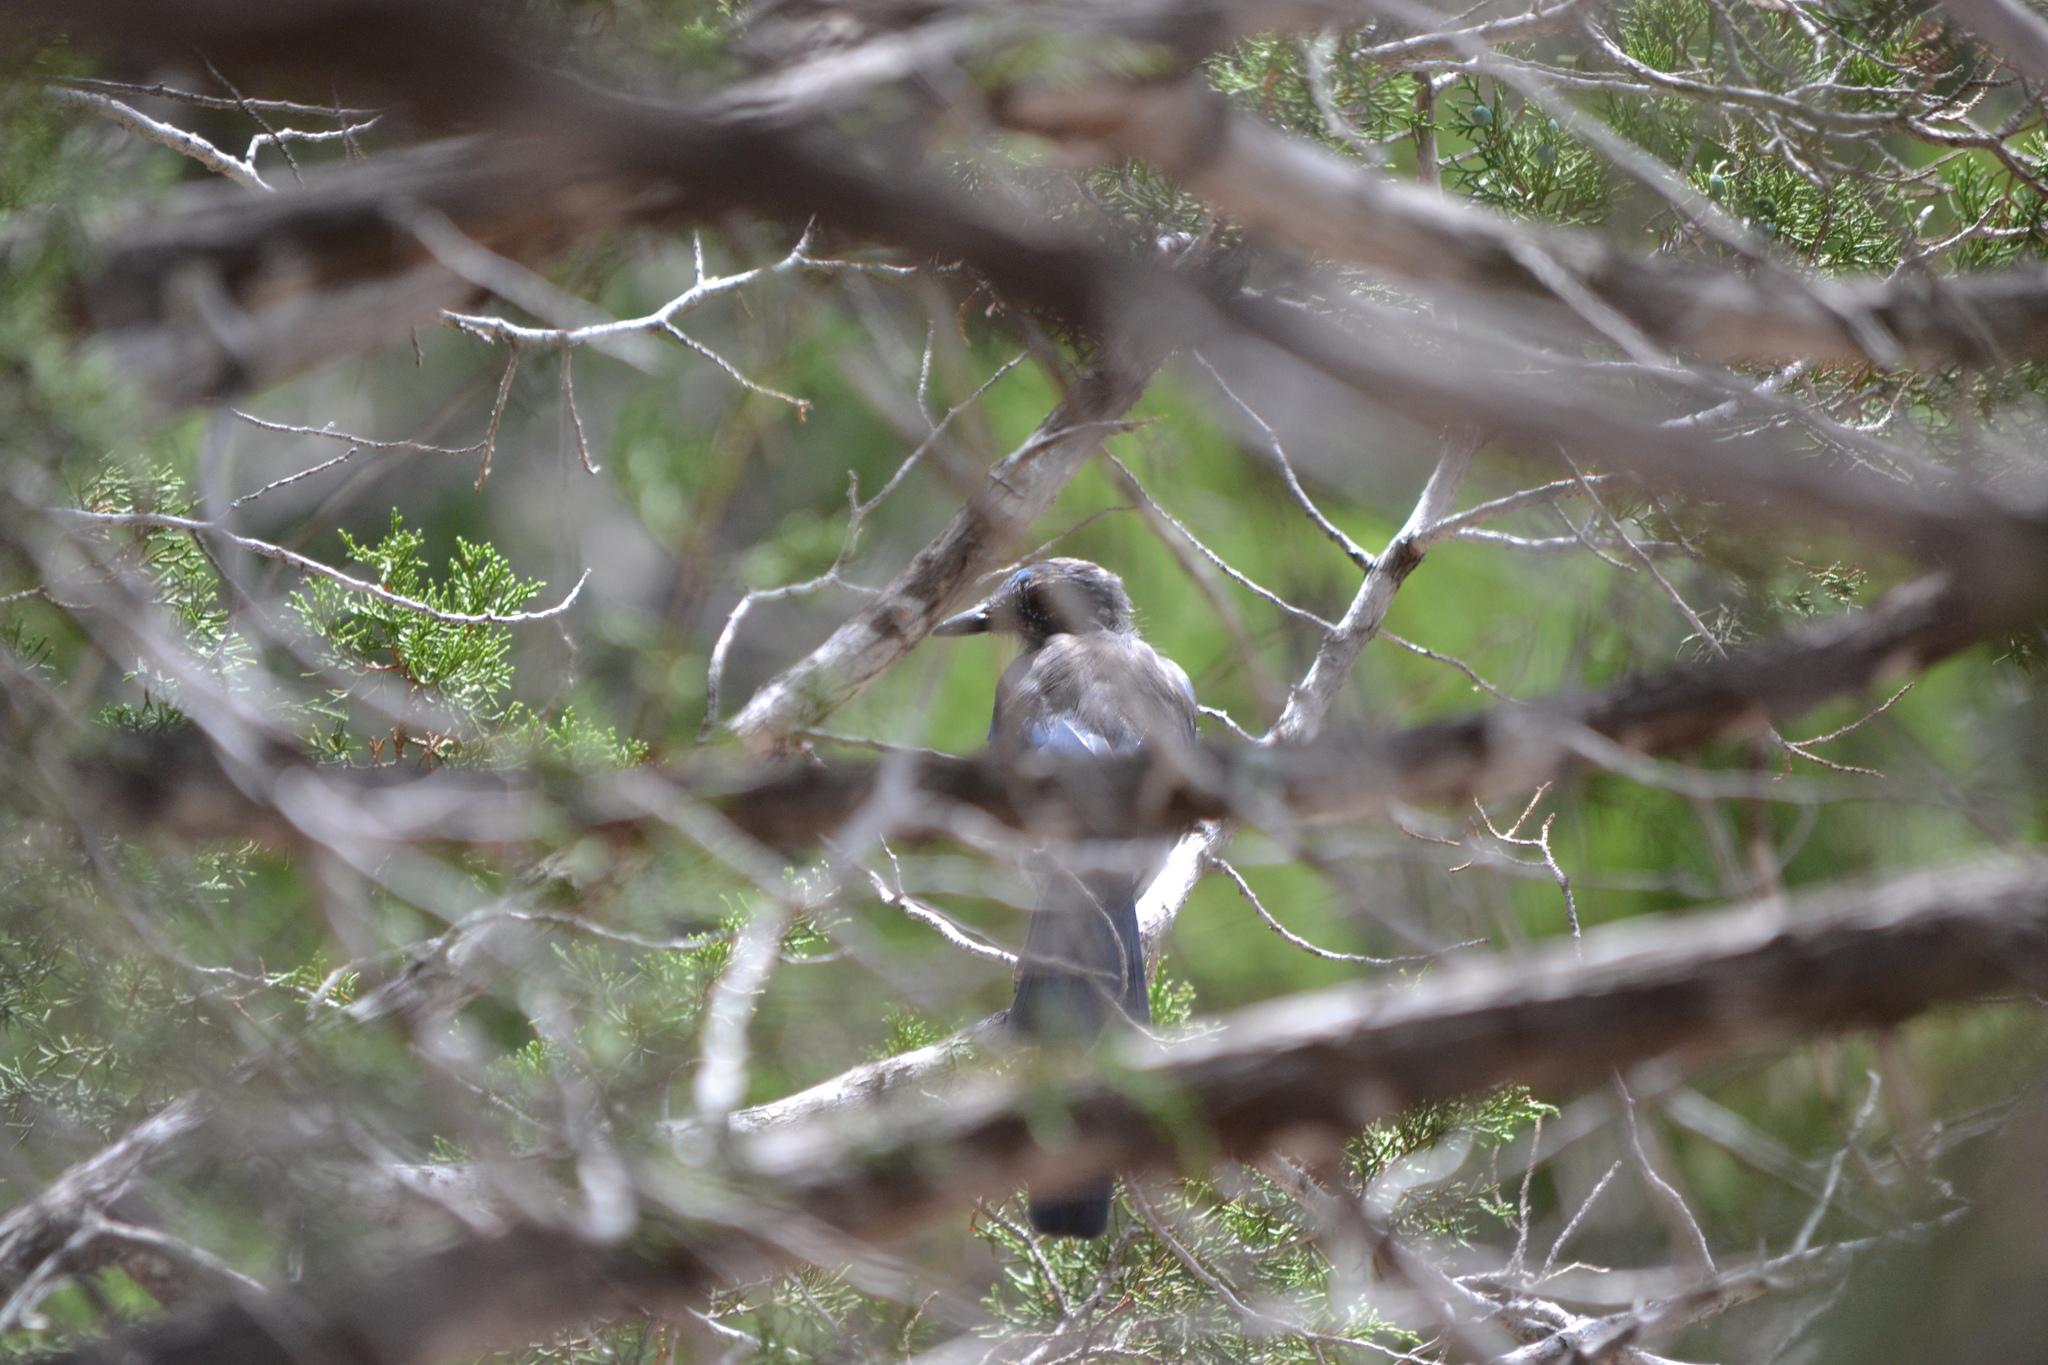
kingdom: Animalia
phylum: Chordata
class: Aves
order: Passeriformes
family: Corvidae
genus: Aphelocoma
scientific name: Aphelocoma woodhouseii
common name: Woodhouse's scrub-jay
